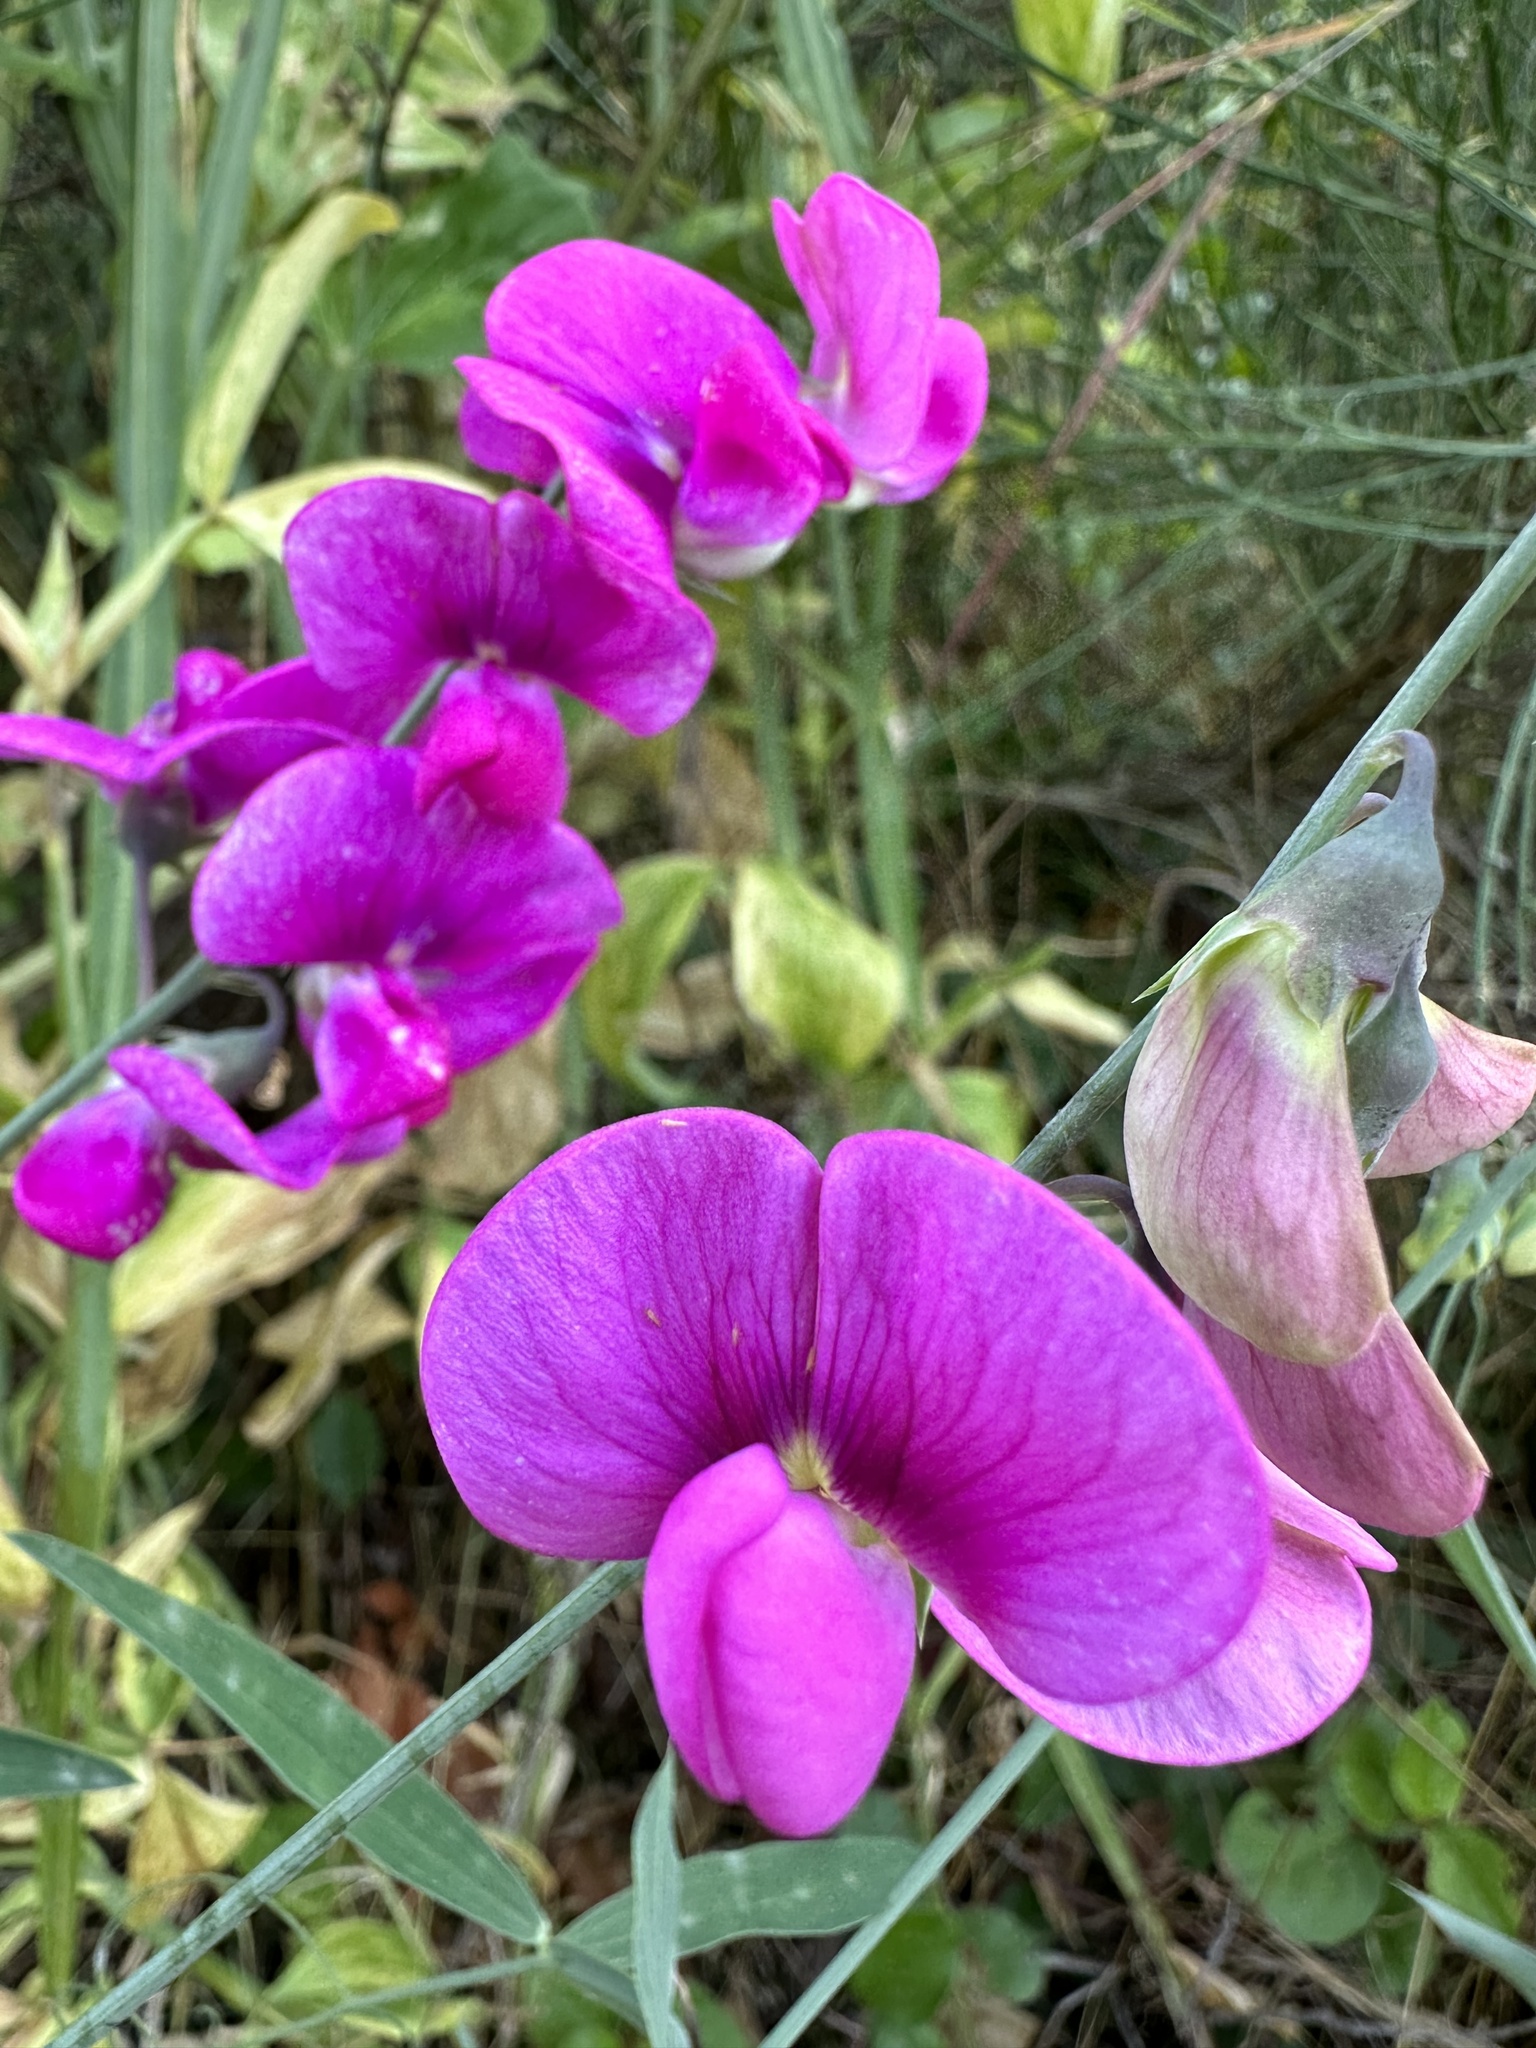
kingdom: Plantae
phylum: Tracheophyta
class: Magnoliopsida
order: Fabales
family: Fabaceae
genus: Lathyrus
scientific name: Lathyrus latifolius
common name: Perennial pea
